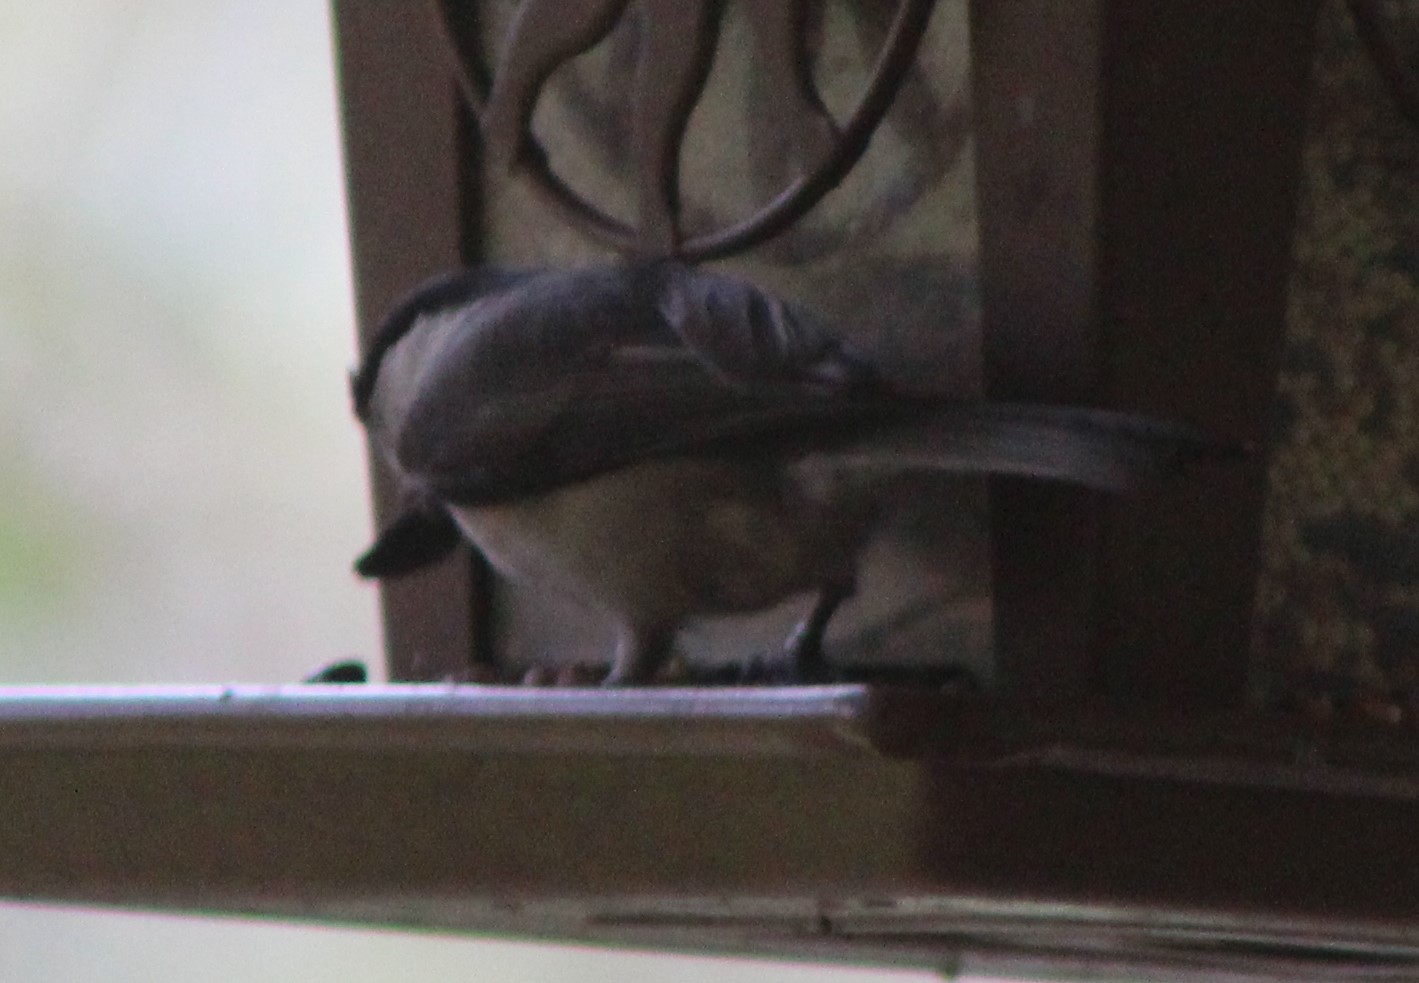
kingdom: Animalia
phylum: Chordata
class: Aves
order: Passeriformes
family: Paridae
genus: Poecile
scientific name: Poecile carolinensis
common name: Carolina chickadee
